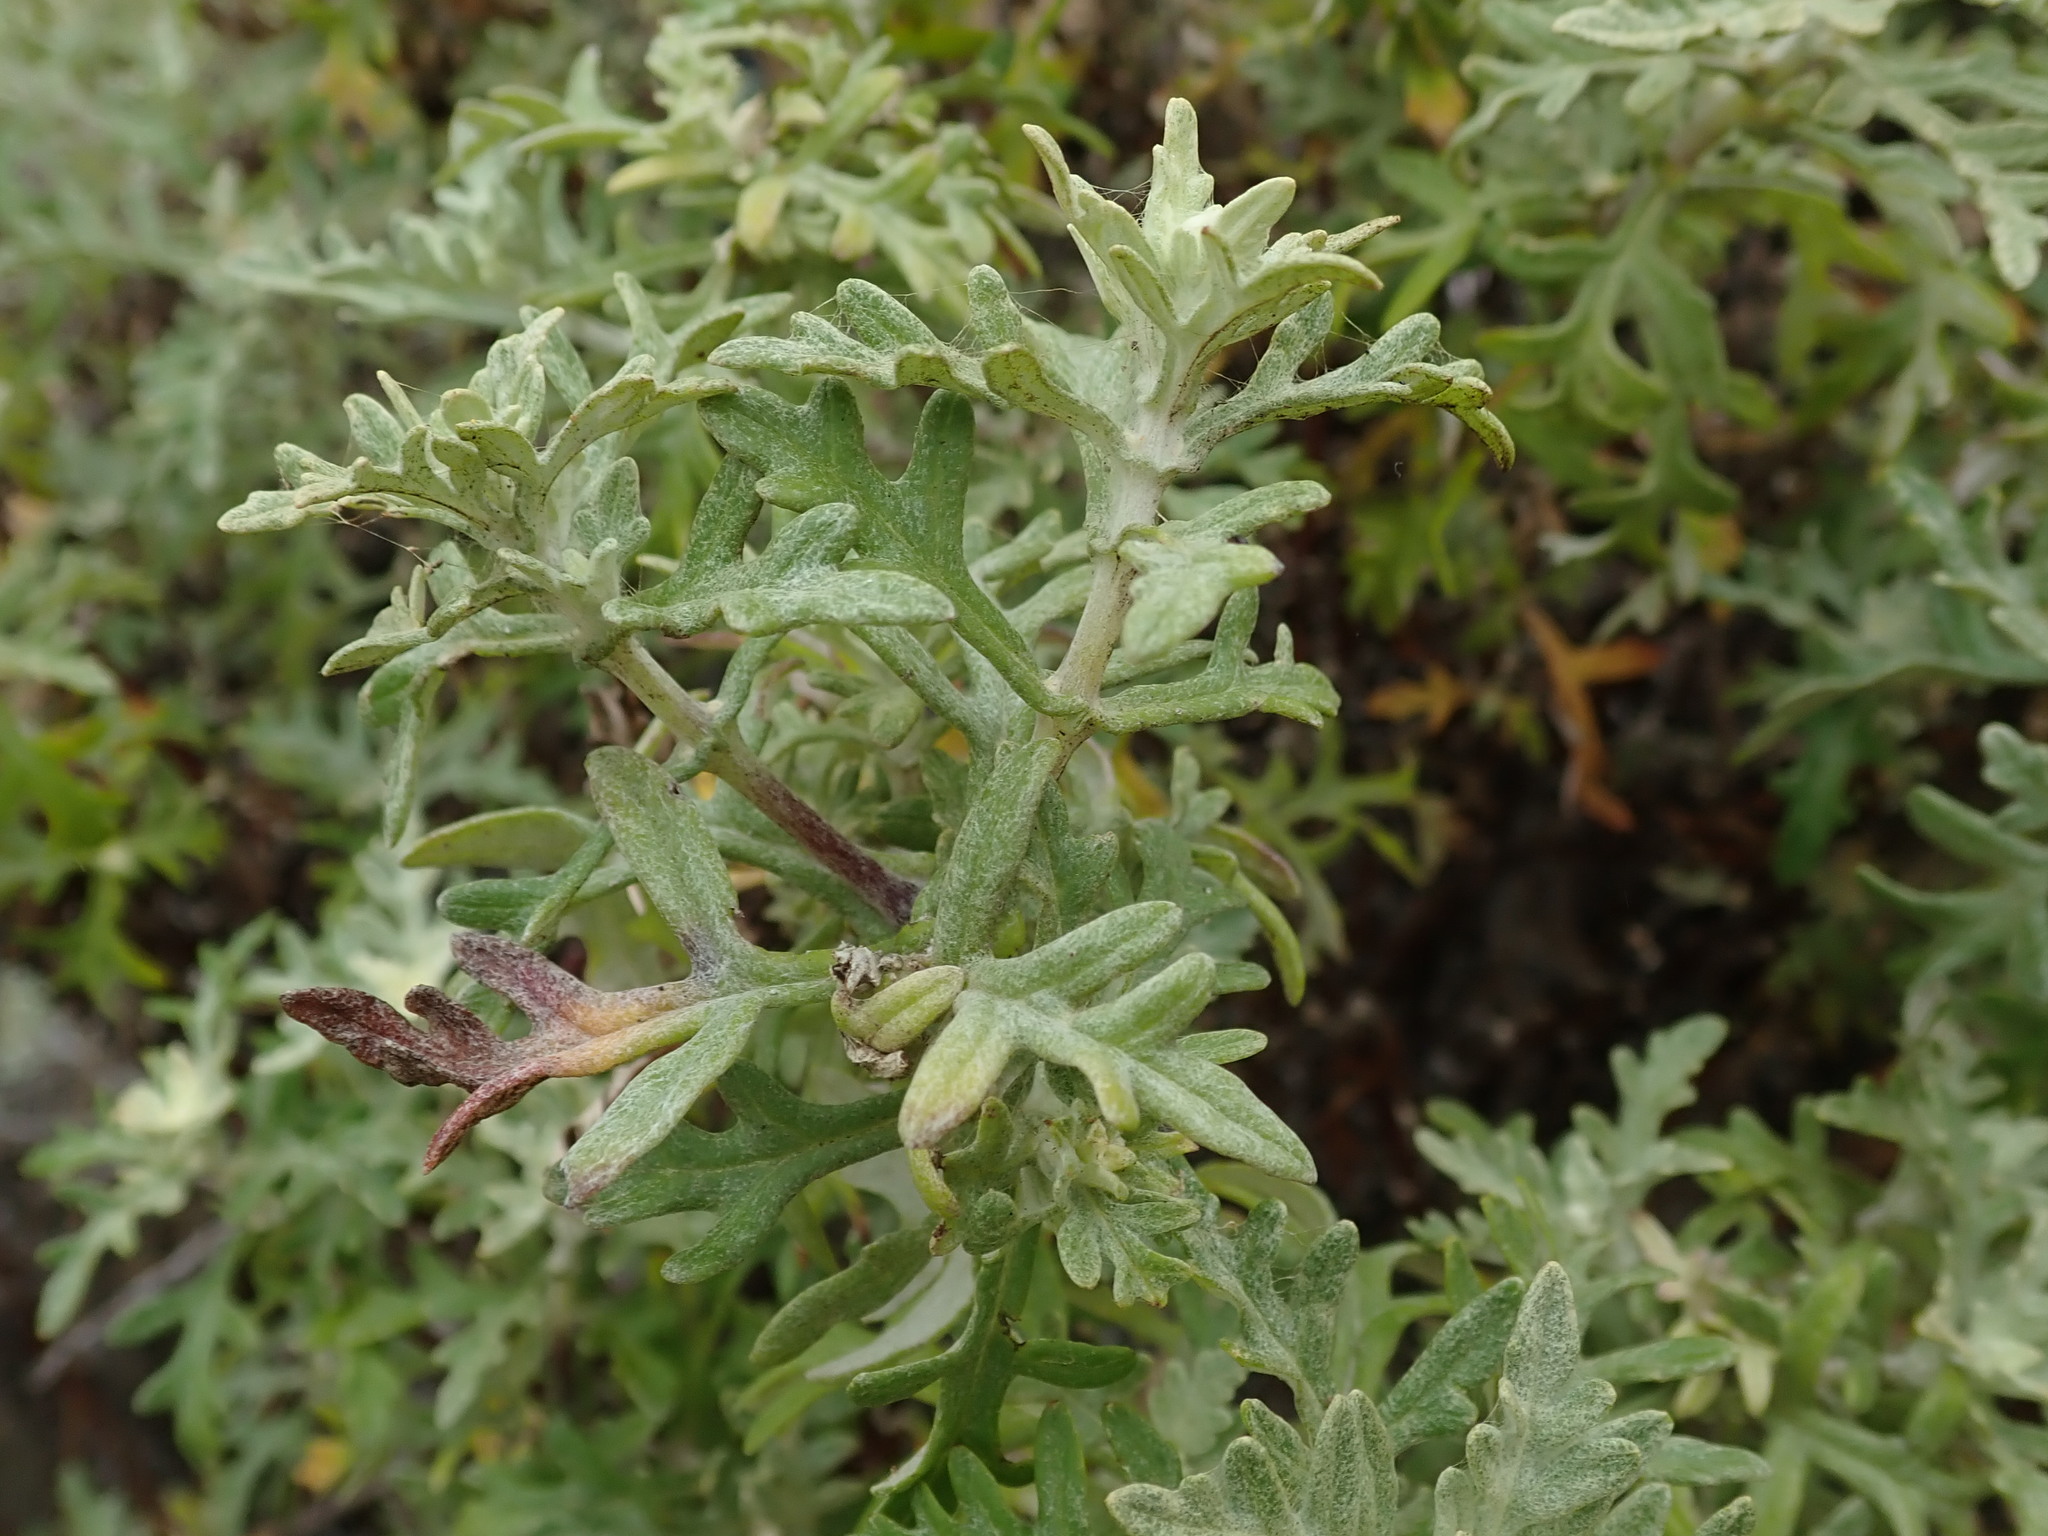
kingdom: Plantae
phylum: Tracheophyta
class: Magnoliopsida
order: Asterales
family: Asteraceae
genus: Eriophyllum
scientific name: Eriophyllum staechadifolium
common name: Lizardtail
